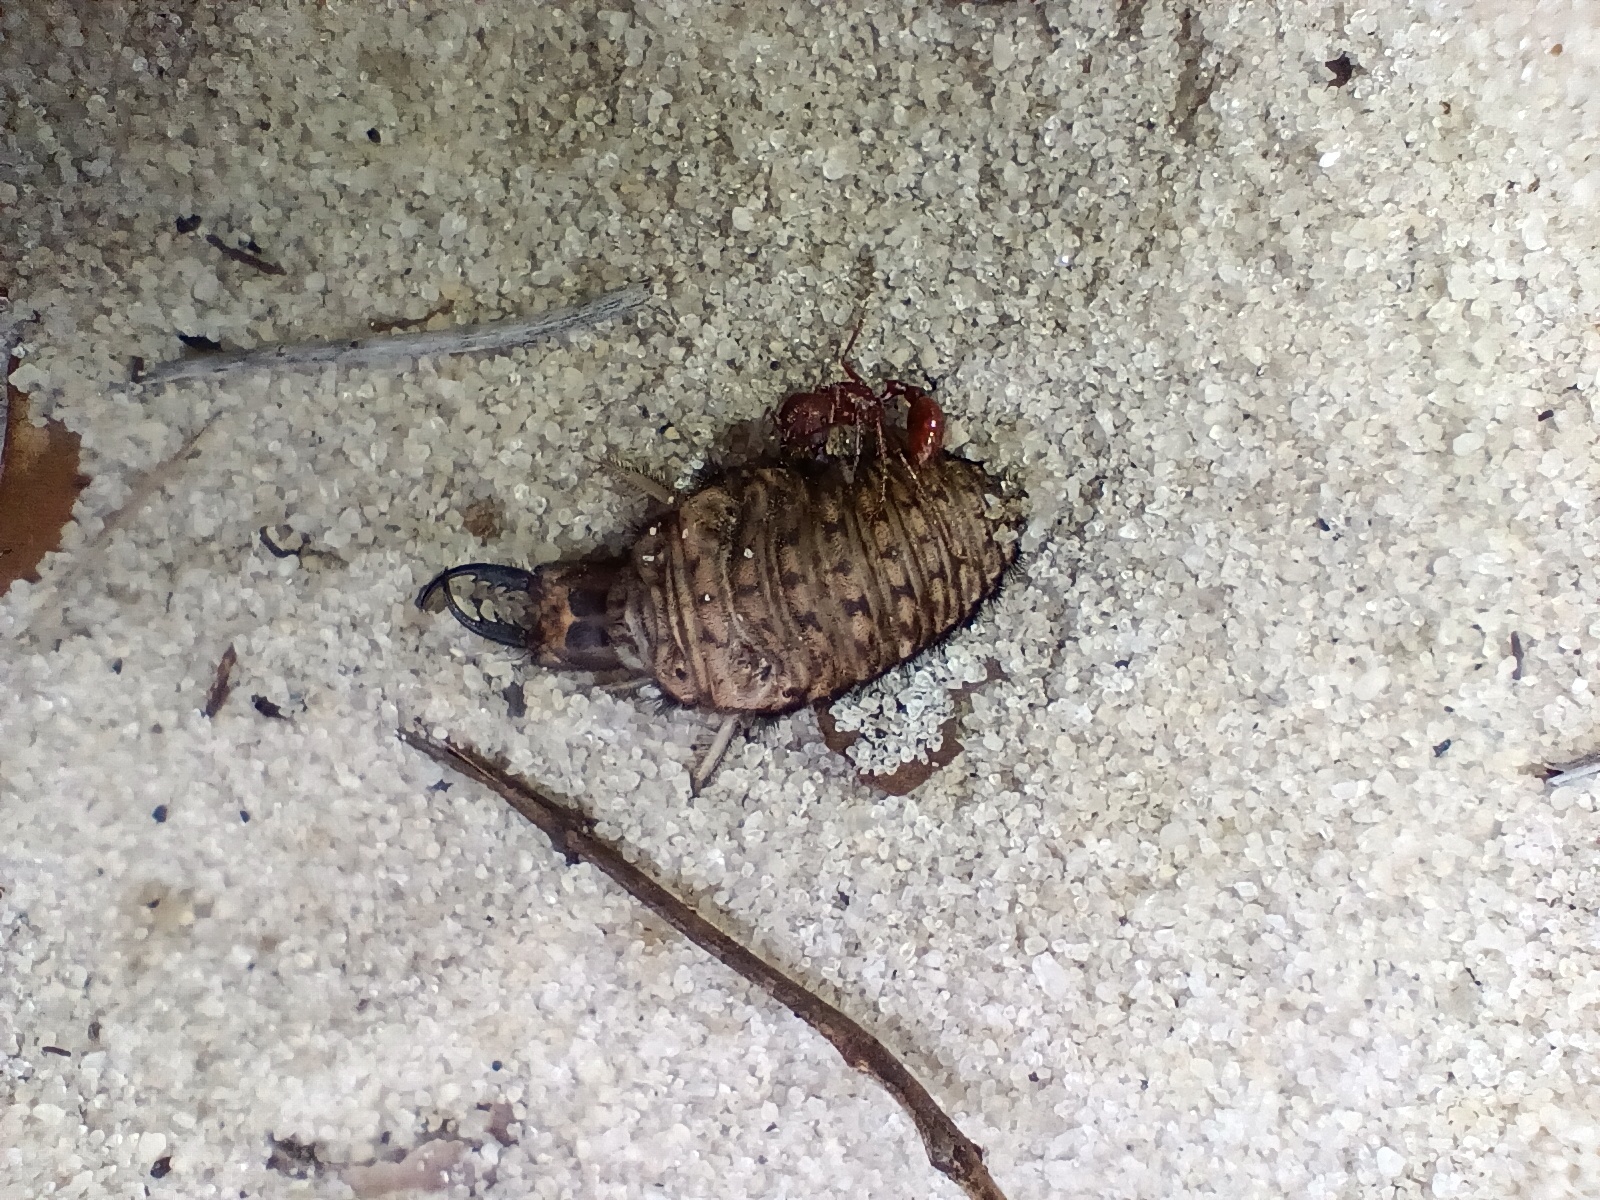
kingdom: Animalia
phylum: Arthropoda
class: Insecta
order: Neuroptera
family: Myrmeleontidae
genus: Vella
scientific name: Vella americana
